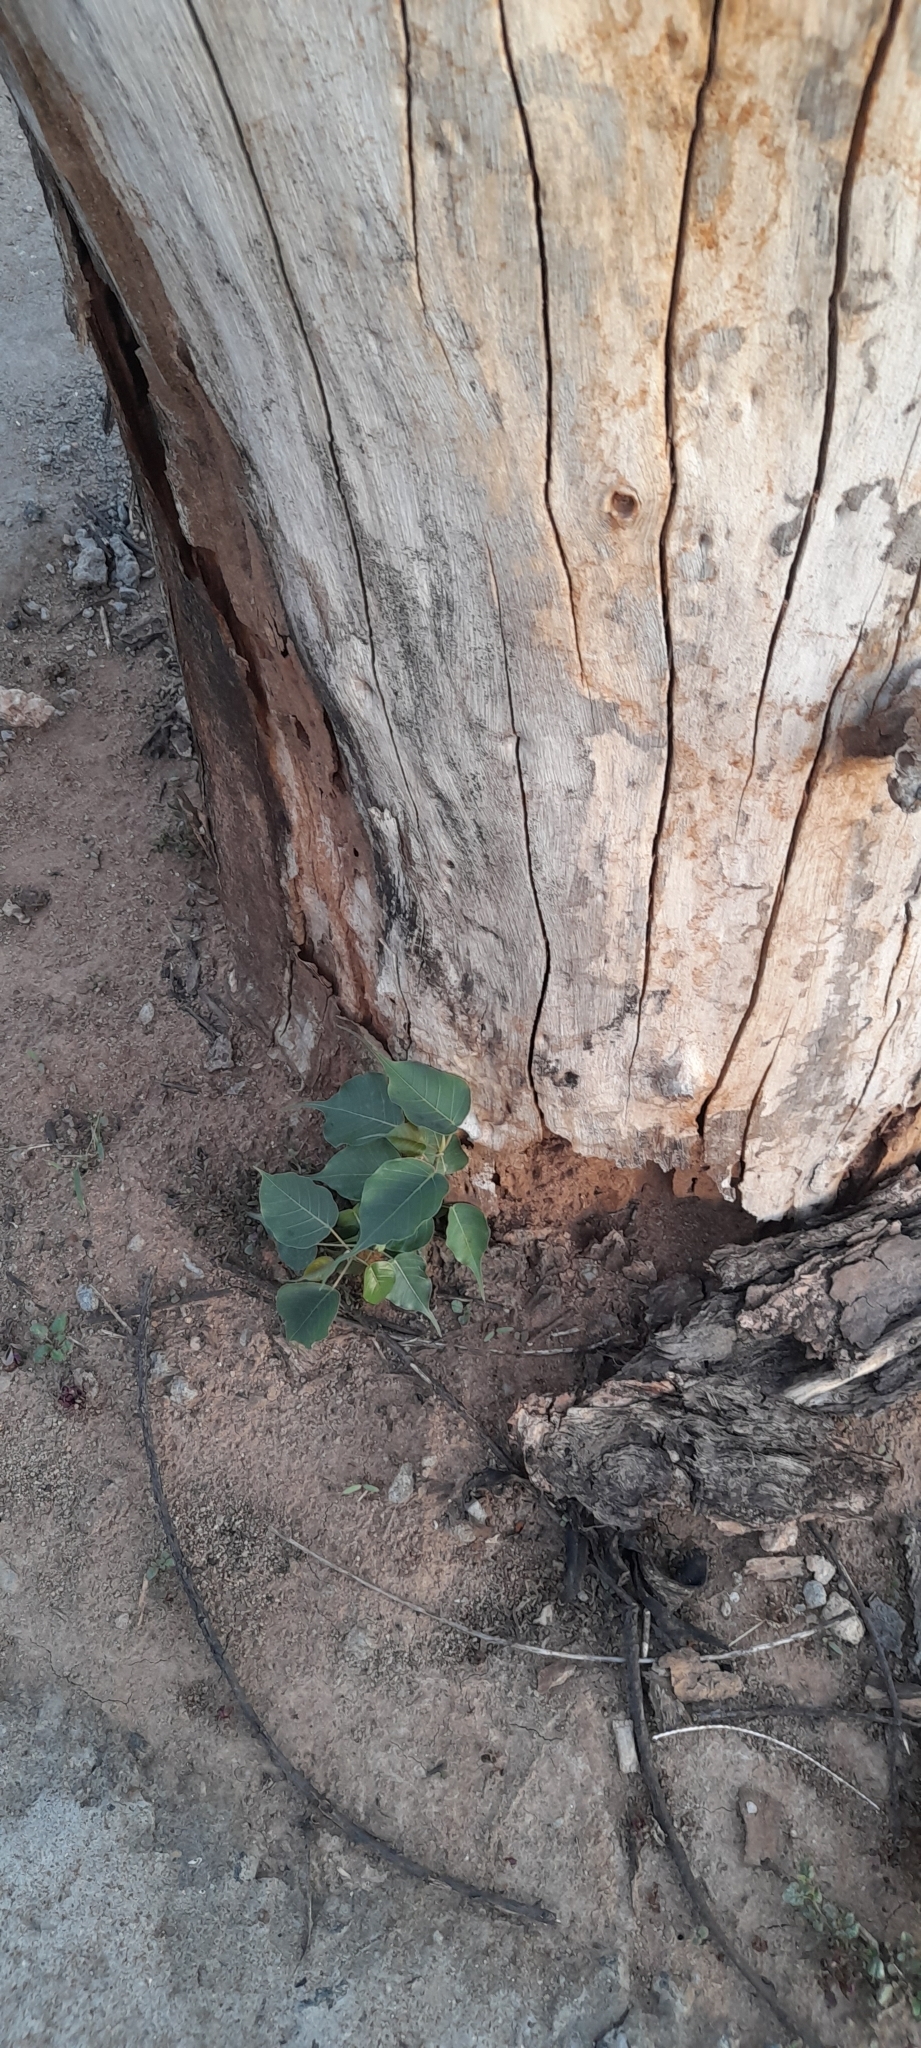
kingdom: Plantae
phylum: Tracheophyta
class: Magnoliopsida
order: Rosales
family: Moraceae
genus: Ficus
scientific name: Ficus religiosa
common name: Bodhi tree
